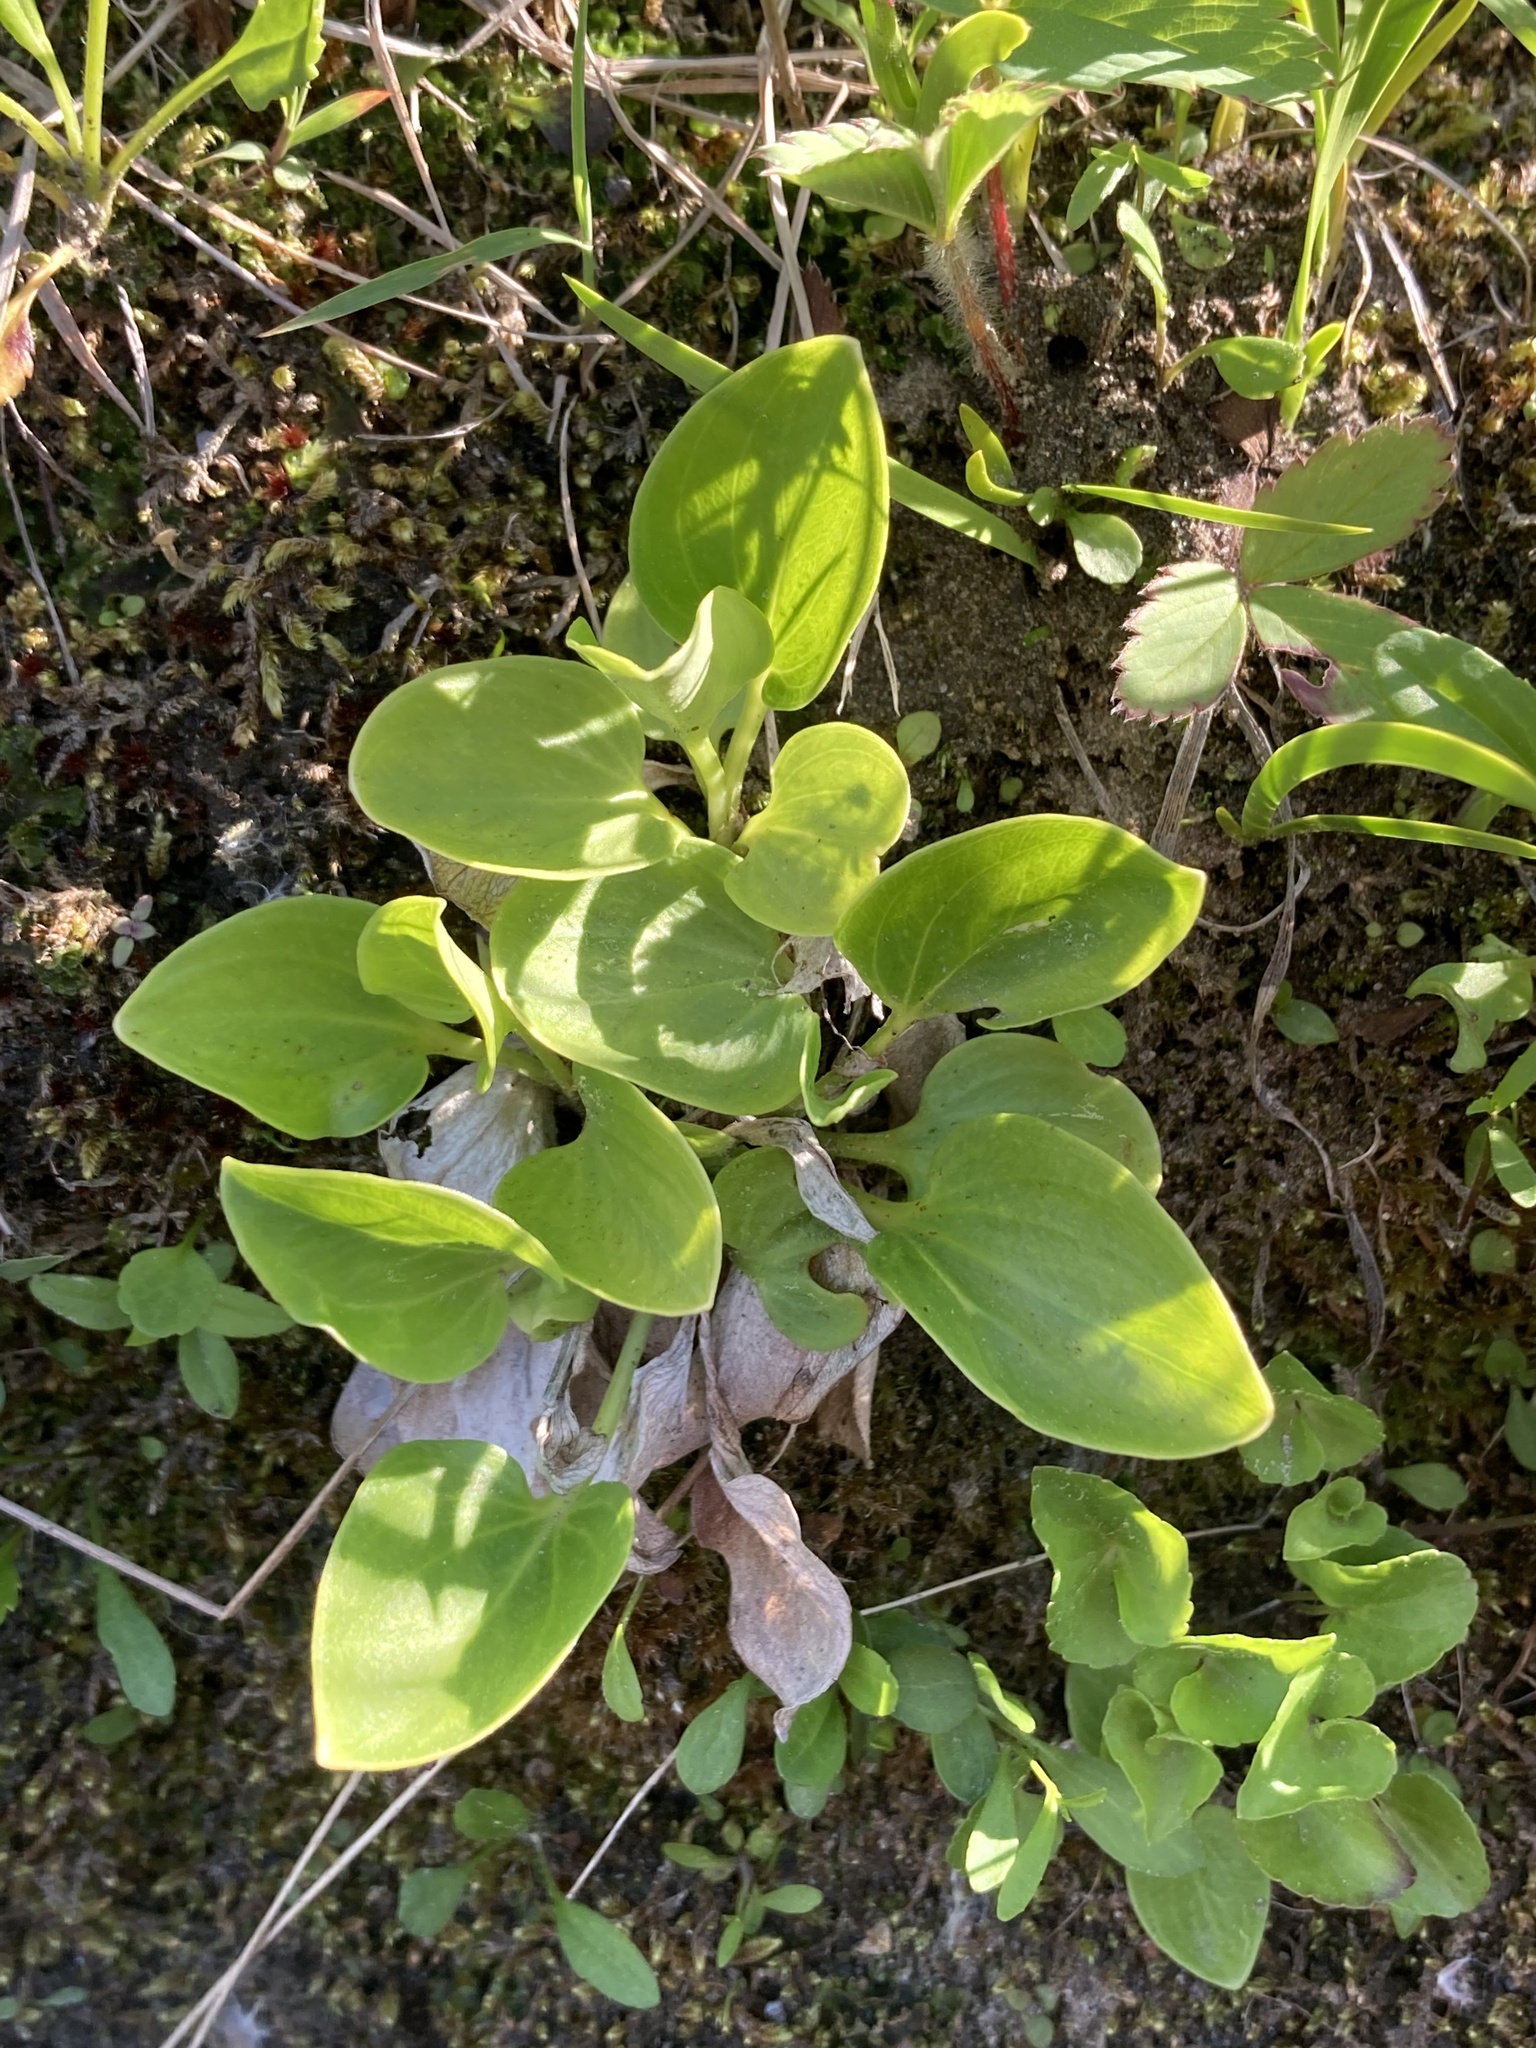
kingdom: Plantae
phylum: Tracheophyta
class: Magnoliopsida
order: Celastrales
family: Parnassiaceae
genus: Parnassia
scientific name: Parnassia glauca
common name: American grass-of-parnassus
